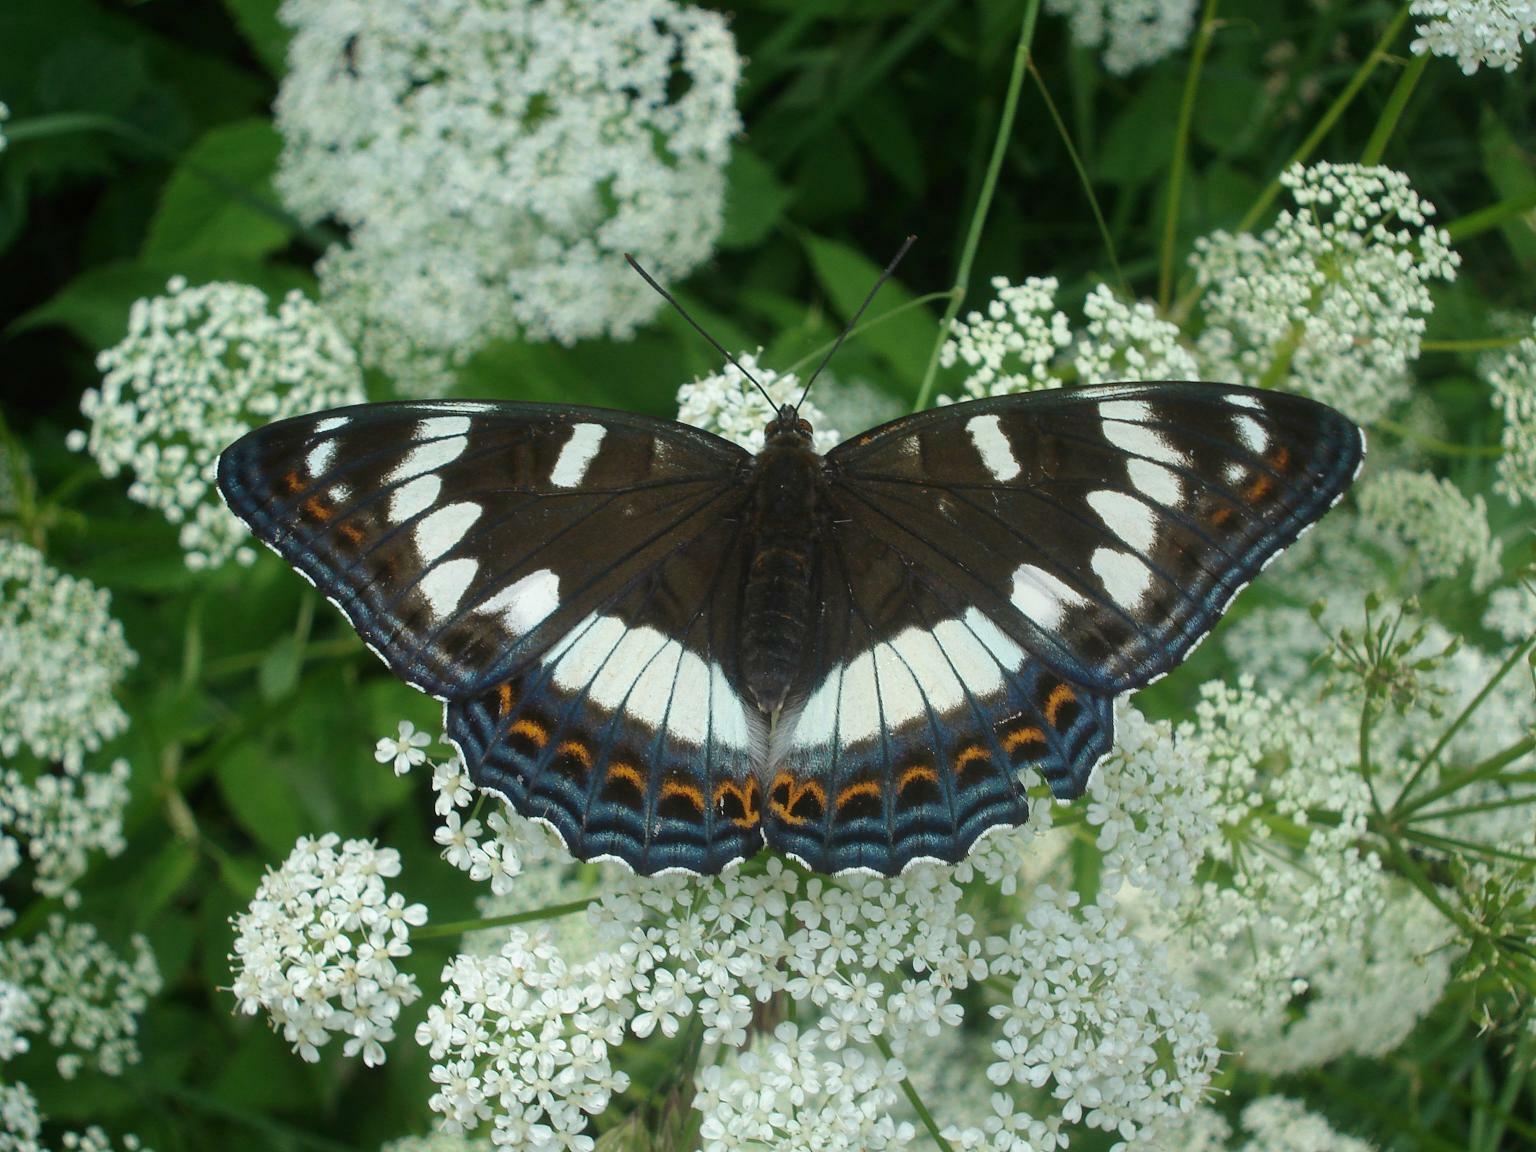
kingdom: Animalia
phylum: Arthropoda
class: Insecta
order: Lepidoptera
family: Nymphalidae
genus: Limenitis
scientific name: Limenitis populi
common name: Poplar admiral
